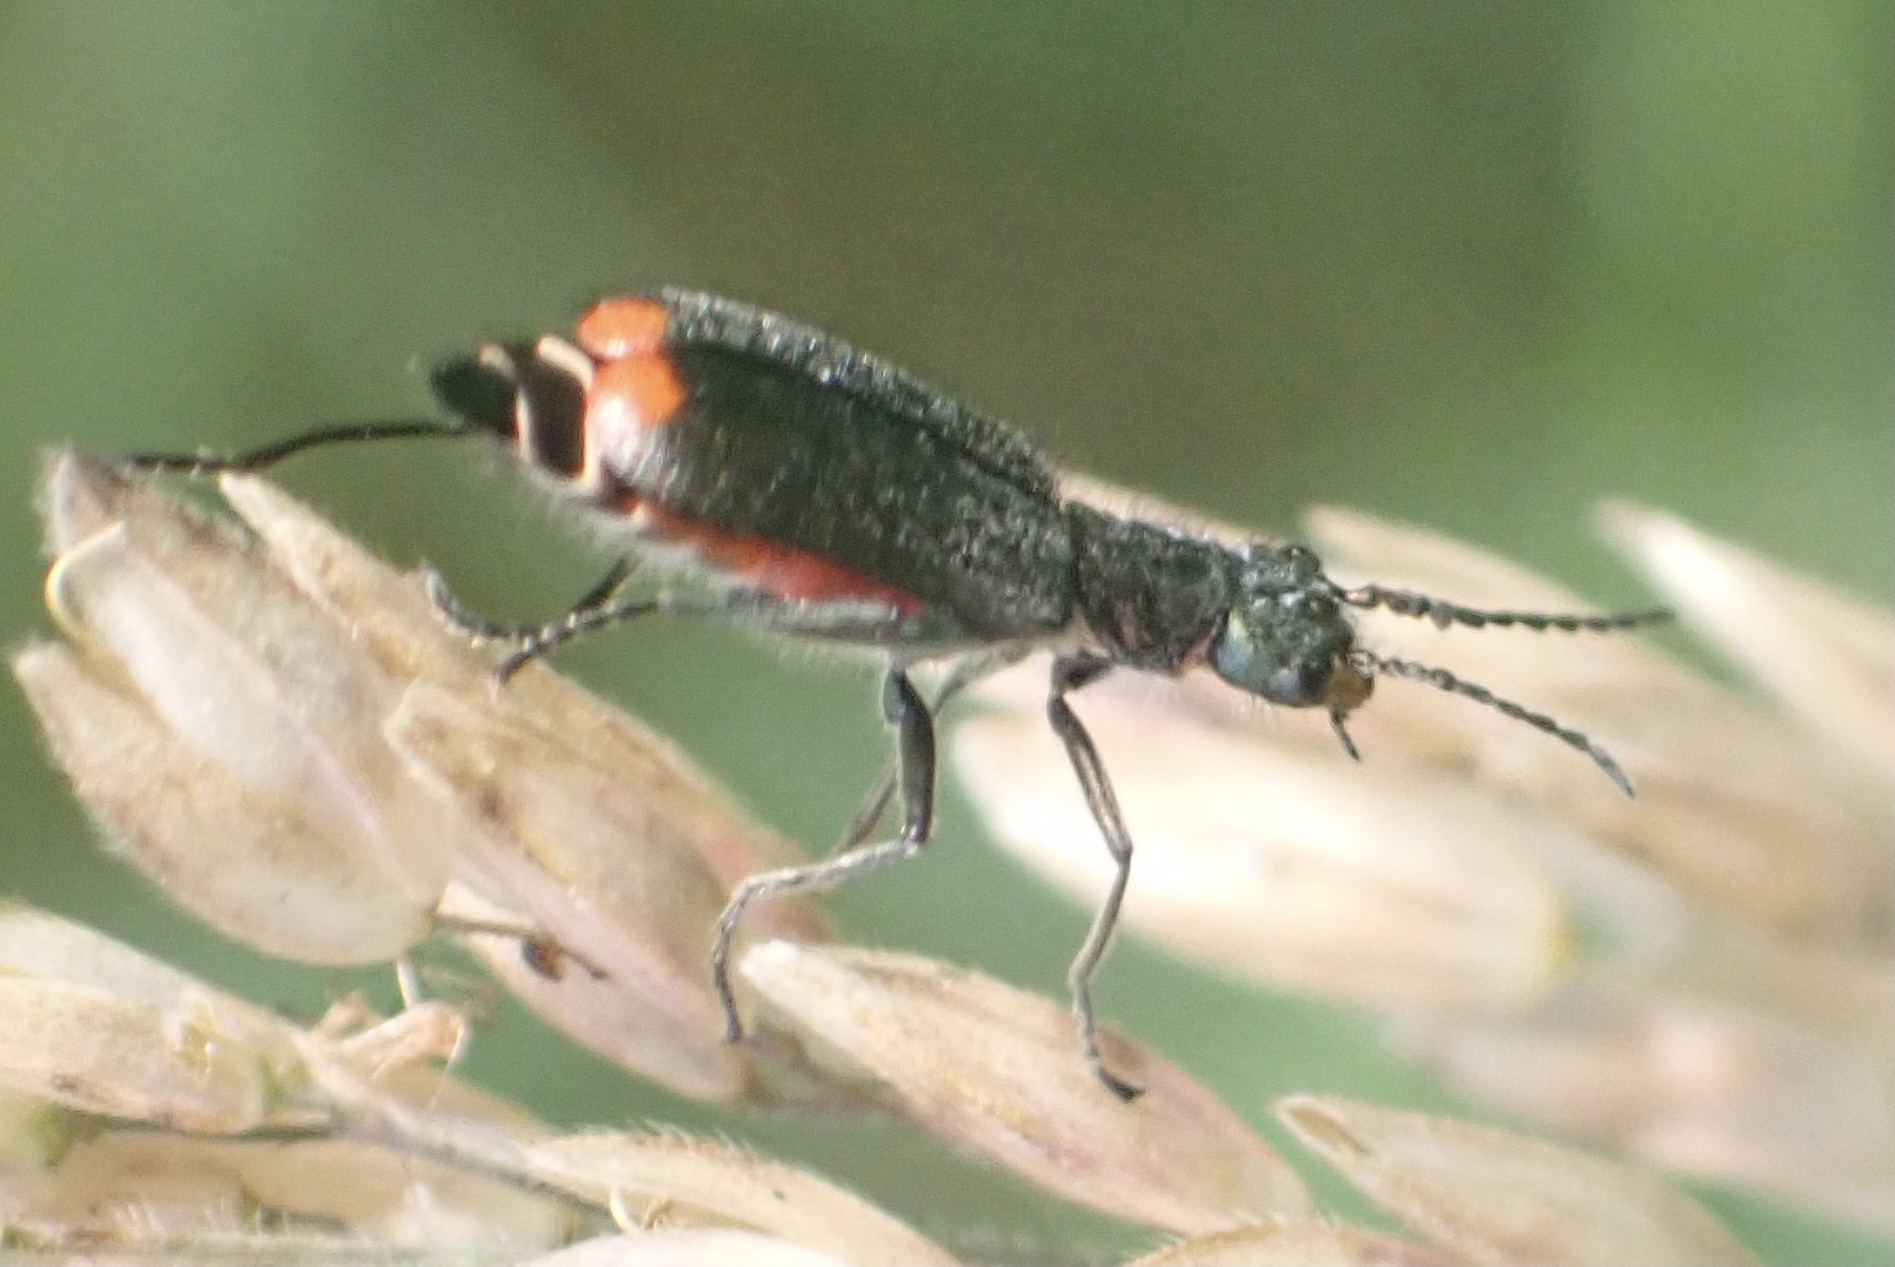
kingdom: Animalia
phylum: Arthropoda
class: Insecta
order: Coleoptera
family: Melyridae
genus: Malachius
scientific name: Malachius bipustulatus
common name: Malachite beetle
